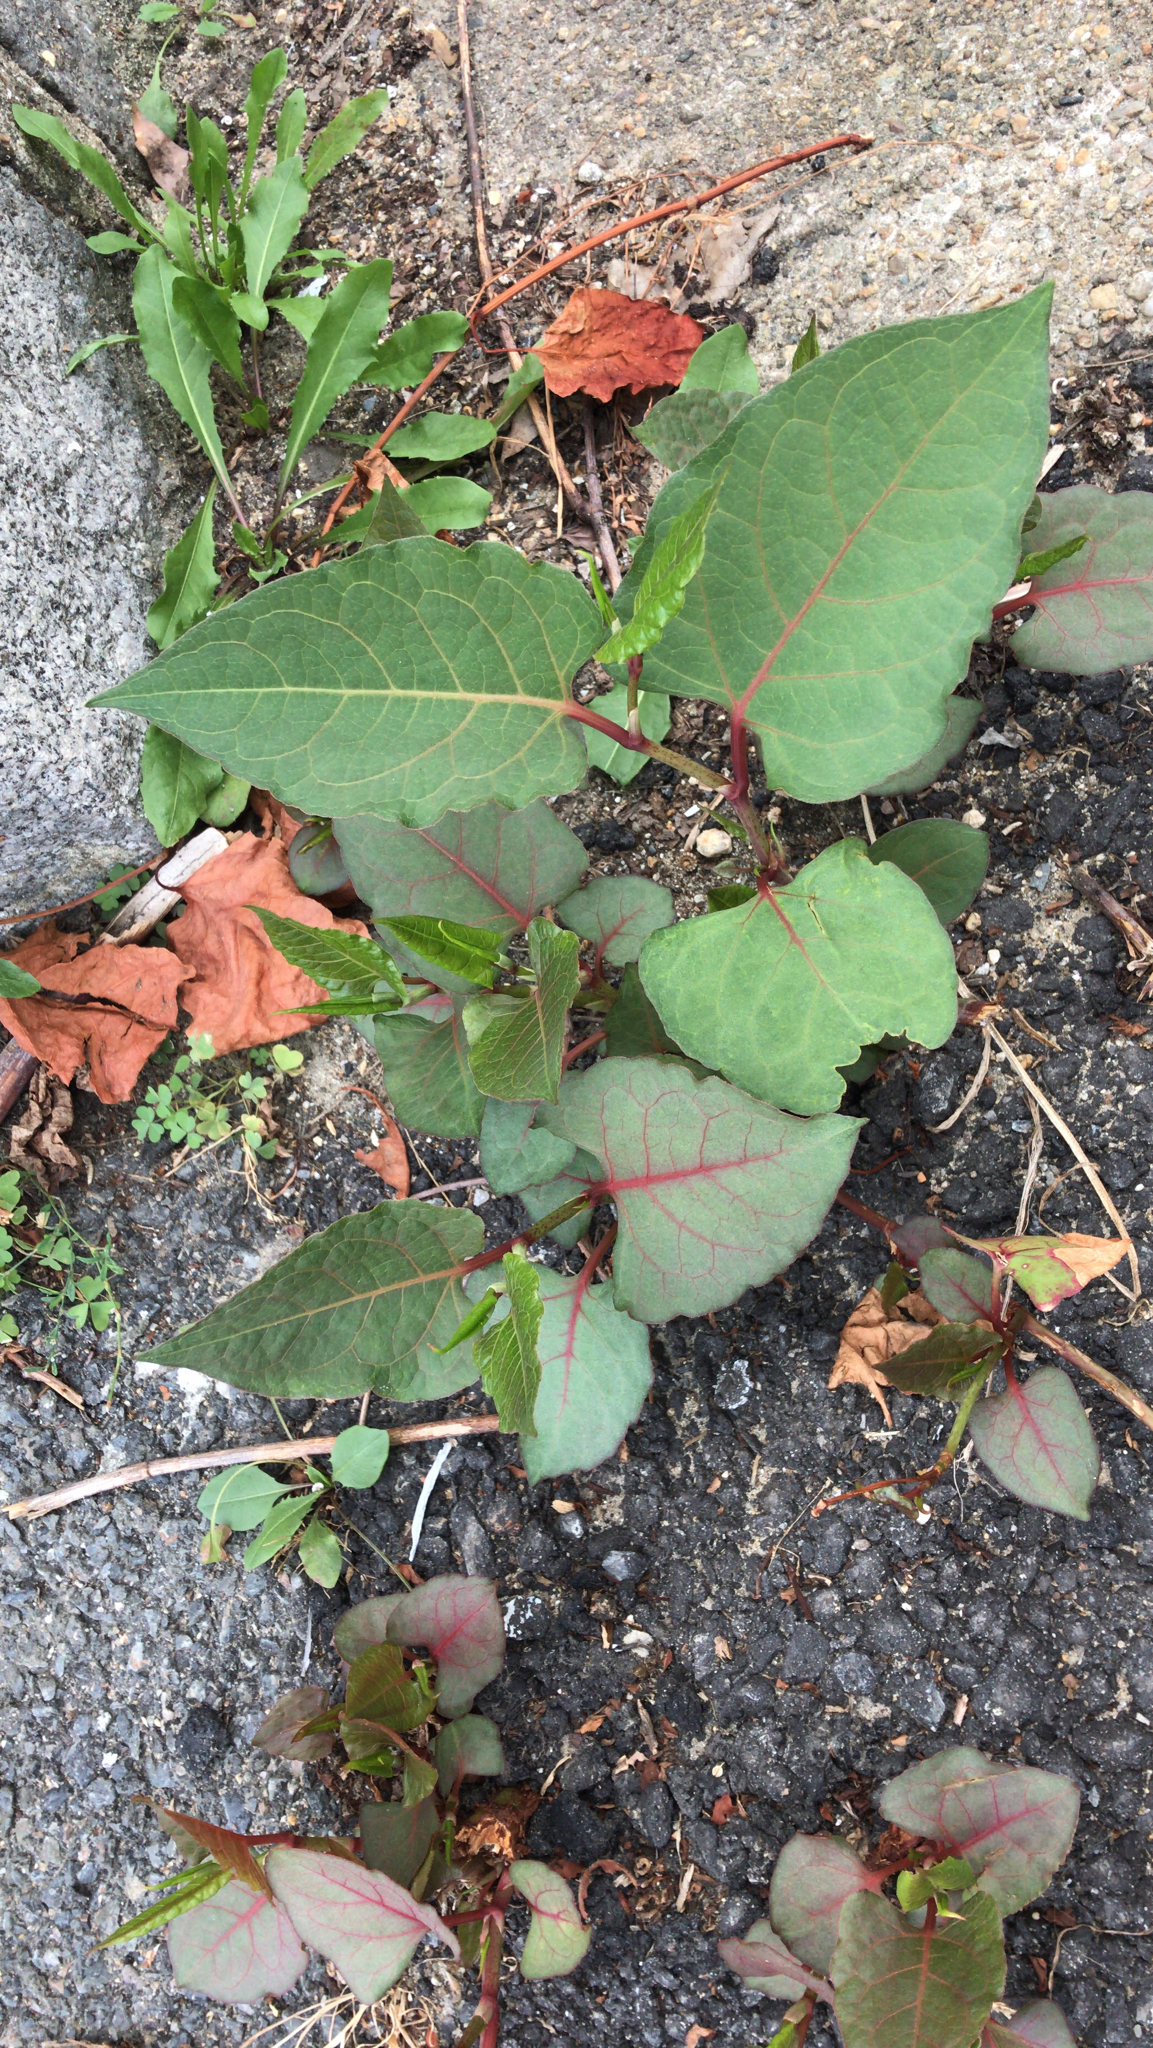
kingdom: Plantae
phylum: Tracheophyta
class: Magnoliopsida
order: Caryophyllales
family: Polygonaceae
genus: Reynoutria
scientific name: Reynoutria japonica
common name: Japanese knotweed
